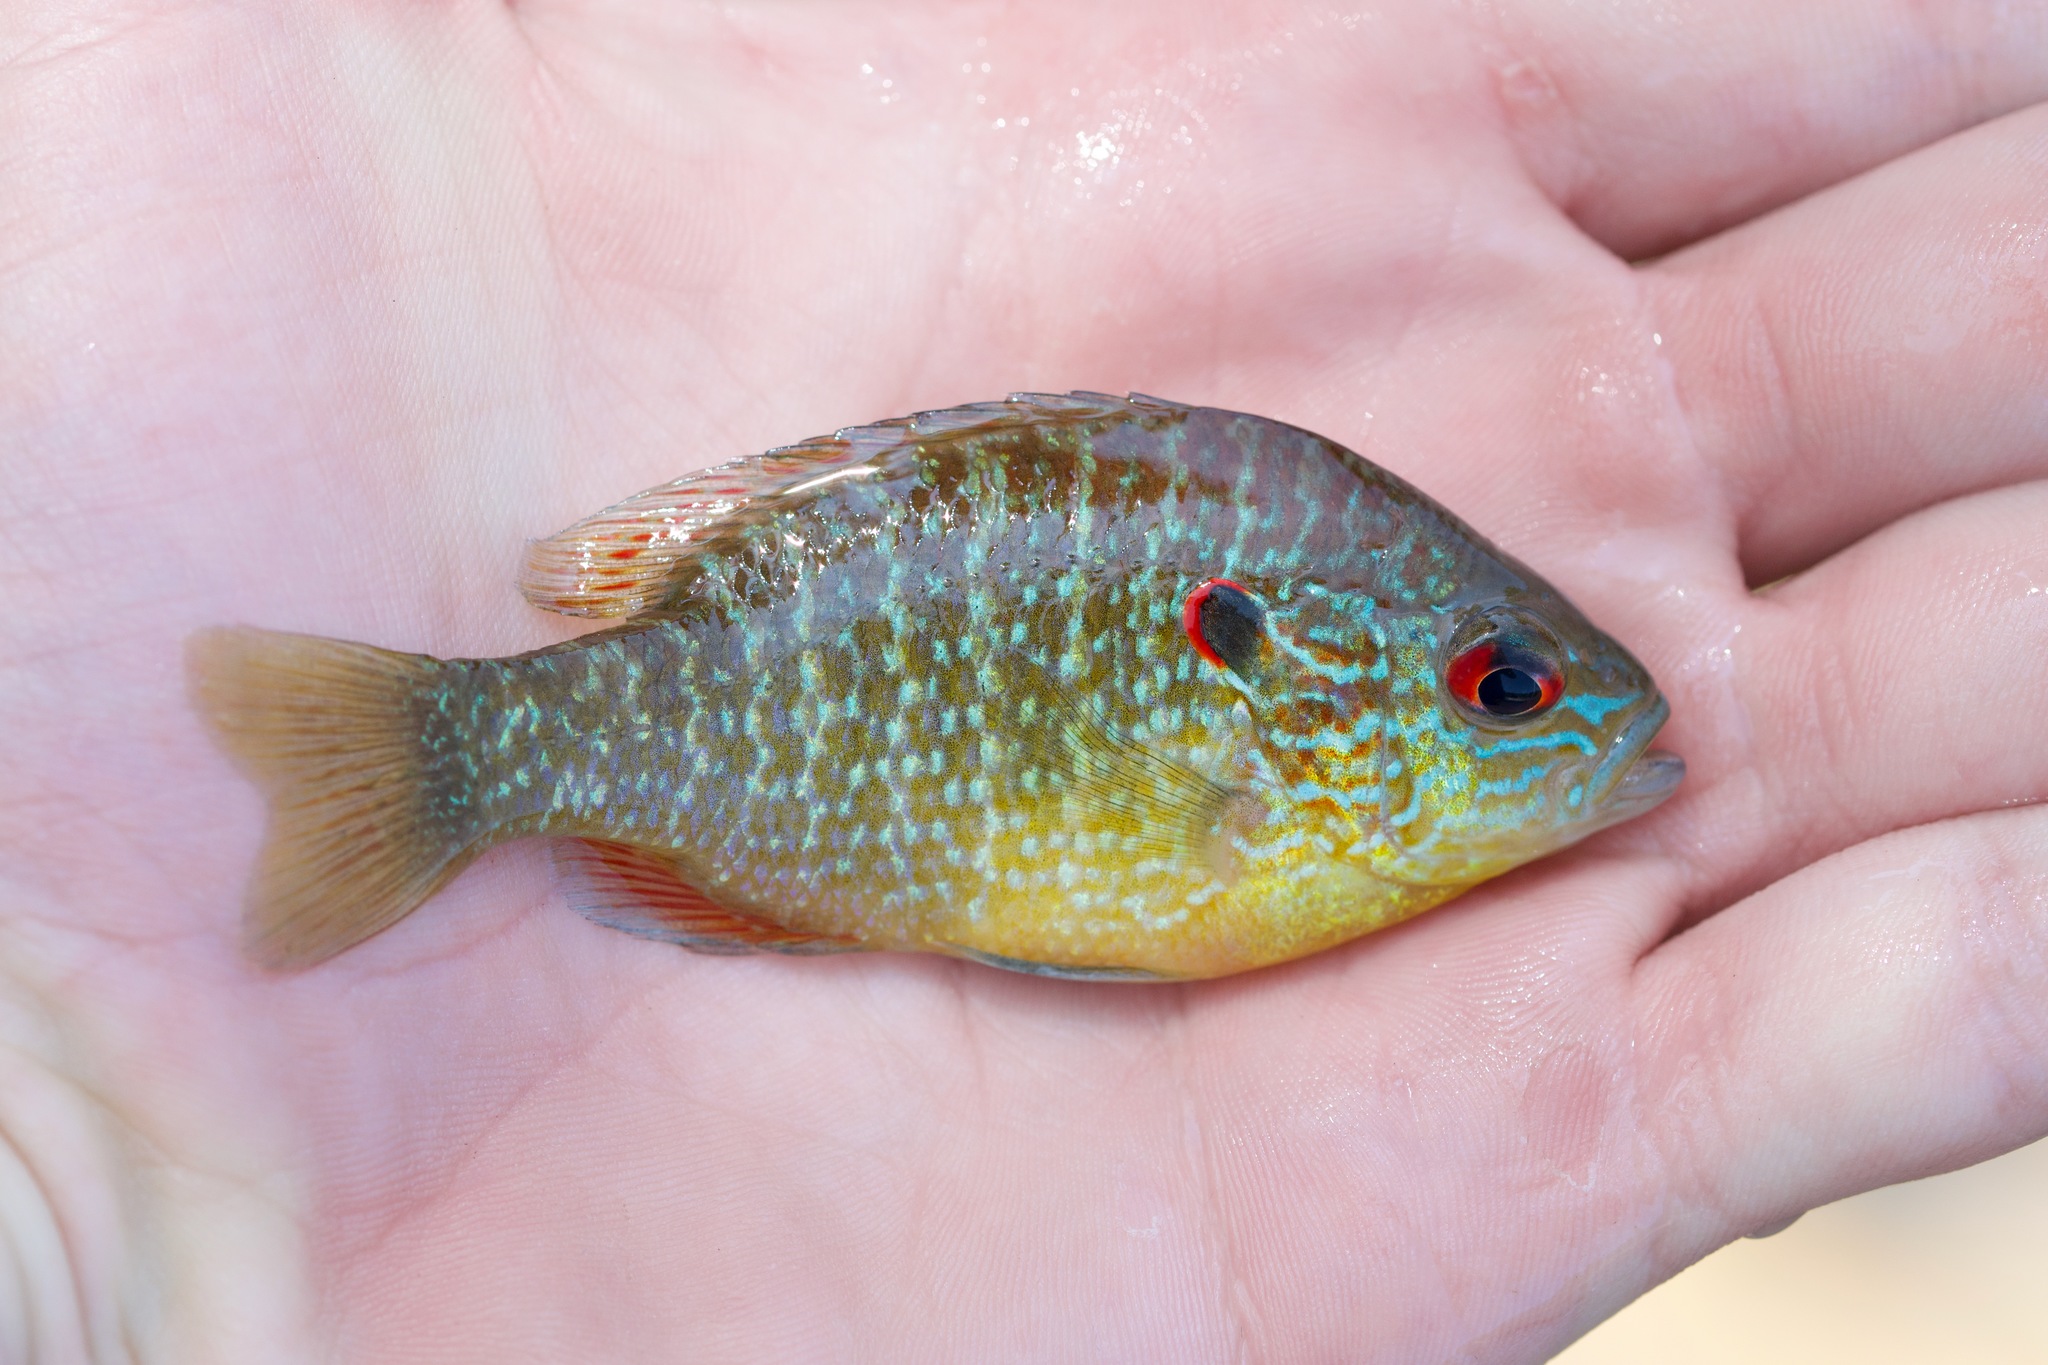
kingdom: Animalia
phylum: Chordata
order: Perciformes
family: Centrarchidae
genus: Lepomis
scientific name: Lepomis peltastes
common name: Northern sunfish
